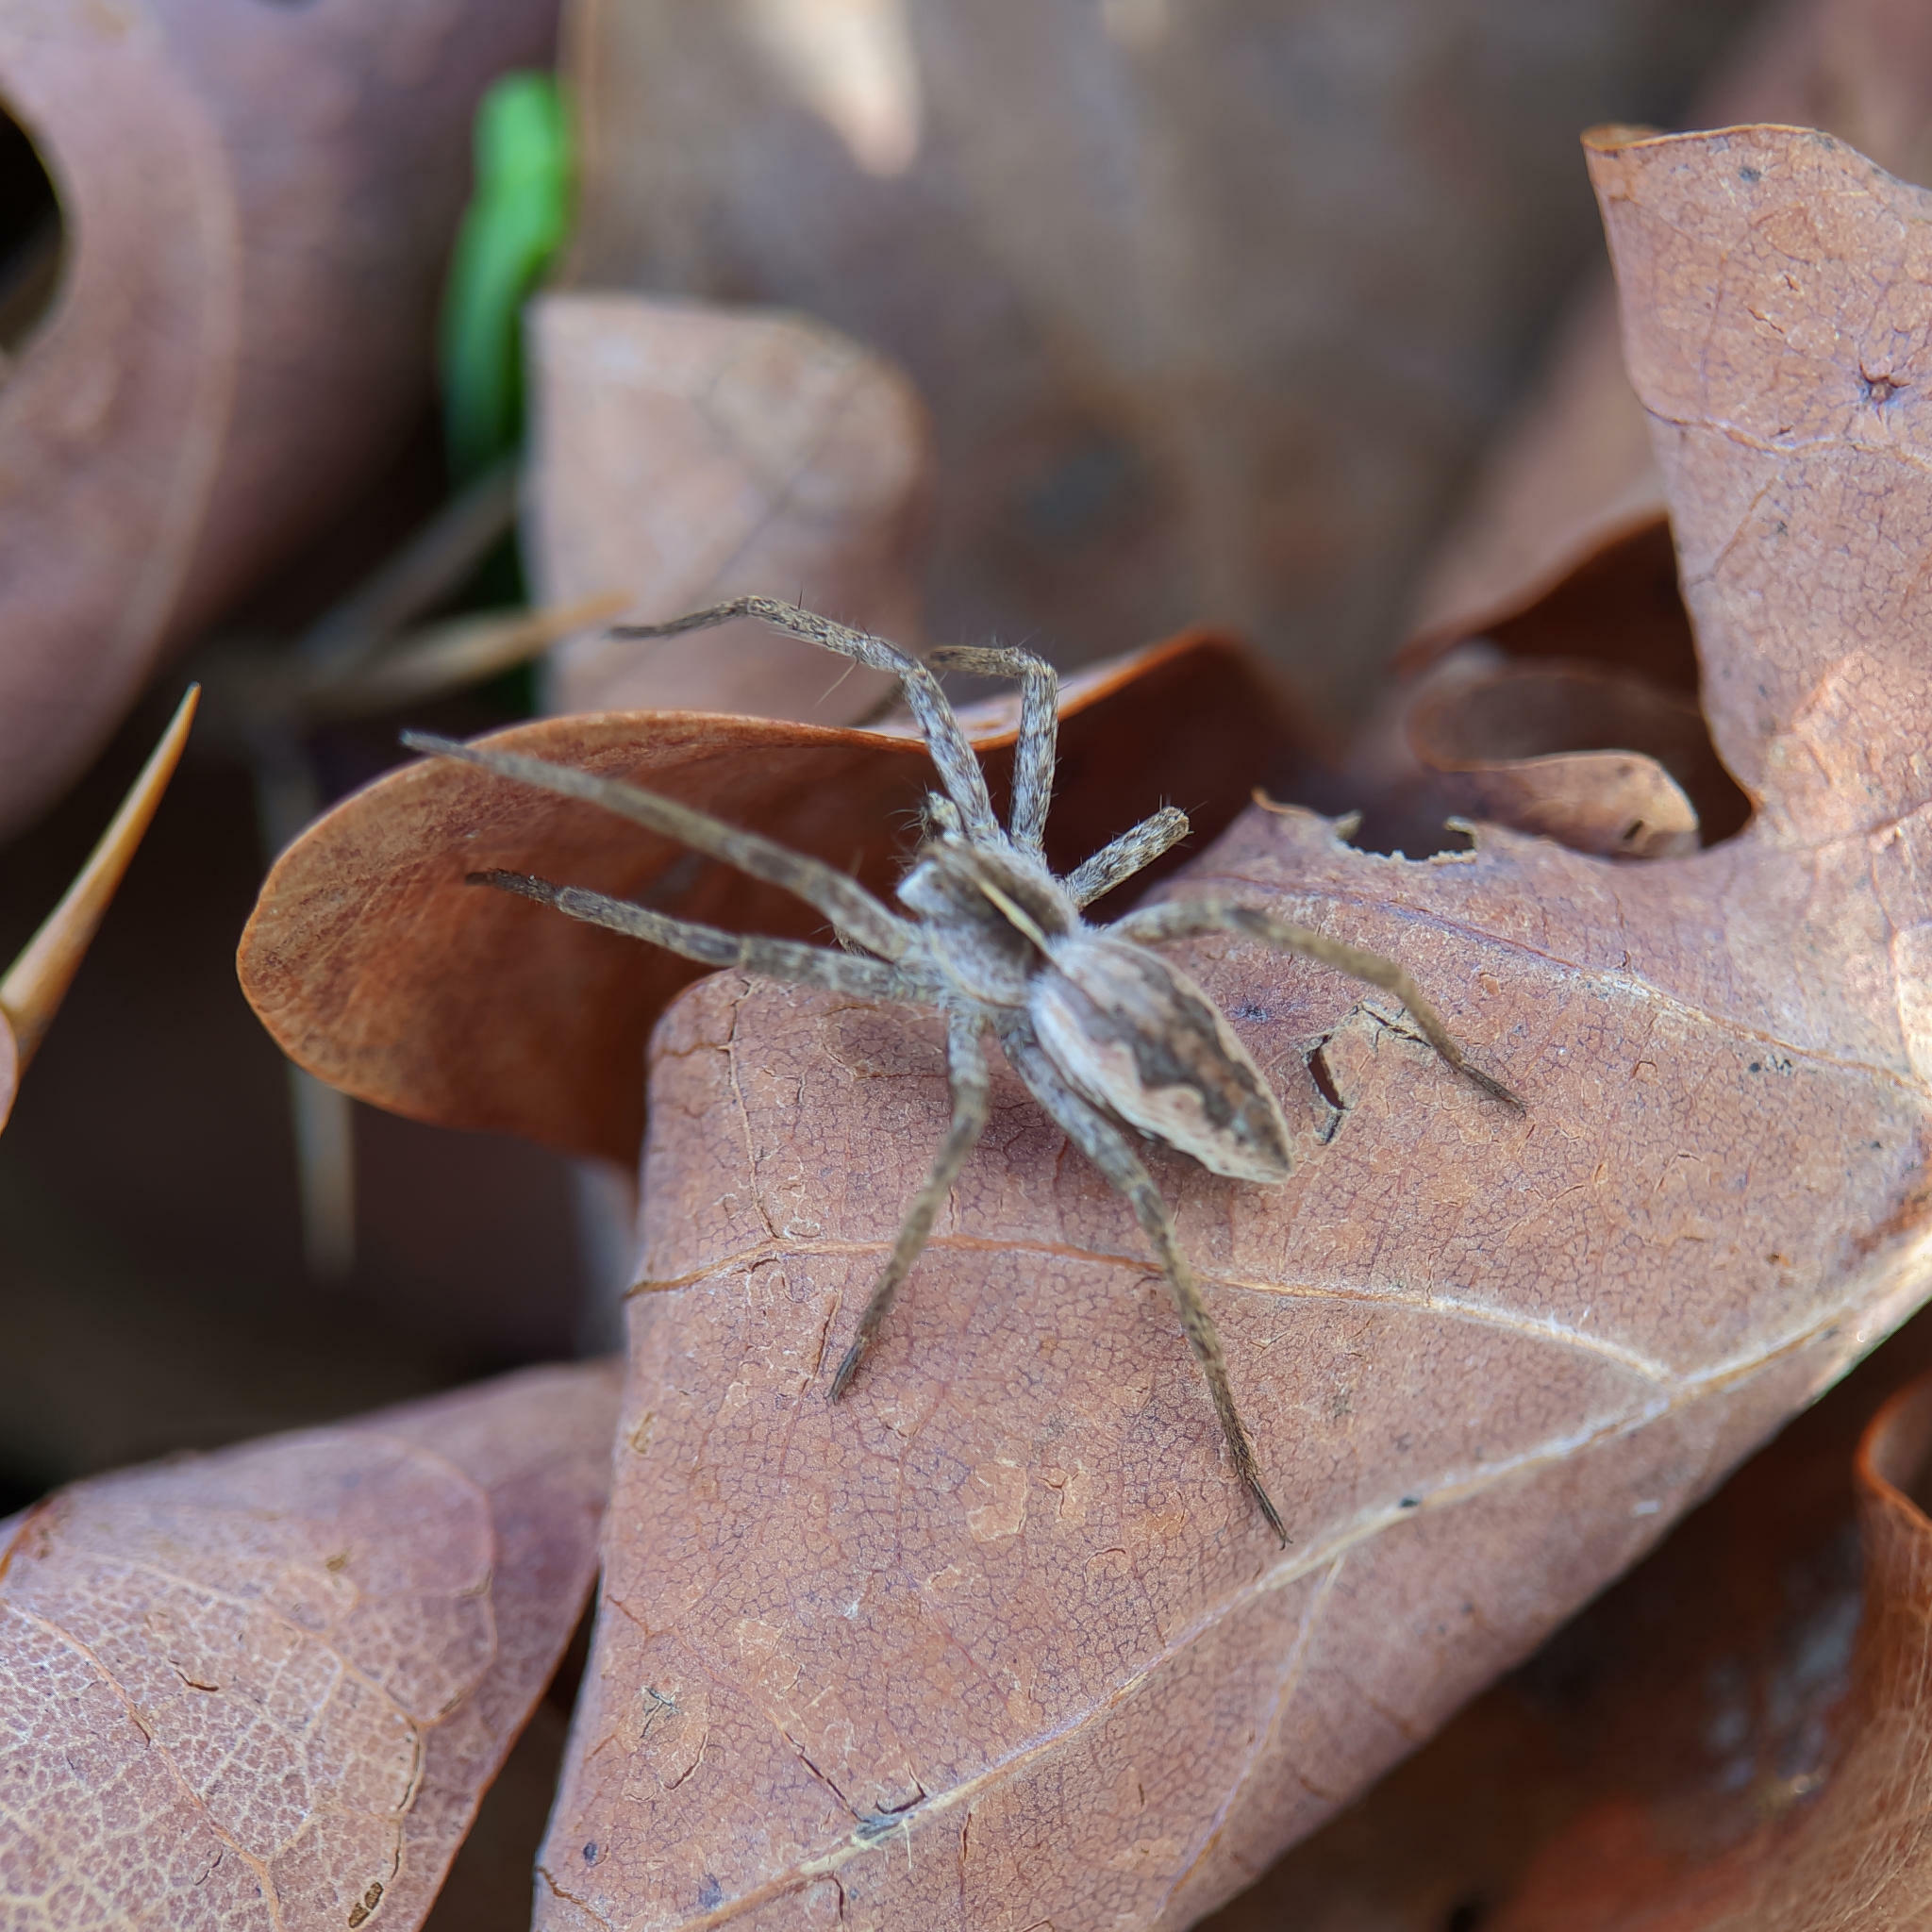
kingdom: Animalia
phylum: Arthropoda
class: Arachnida
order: Araneae
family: Pisauridae
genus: Pisaura
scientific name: Pisaura mirabilis
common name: Tent spider
